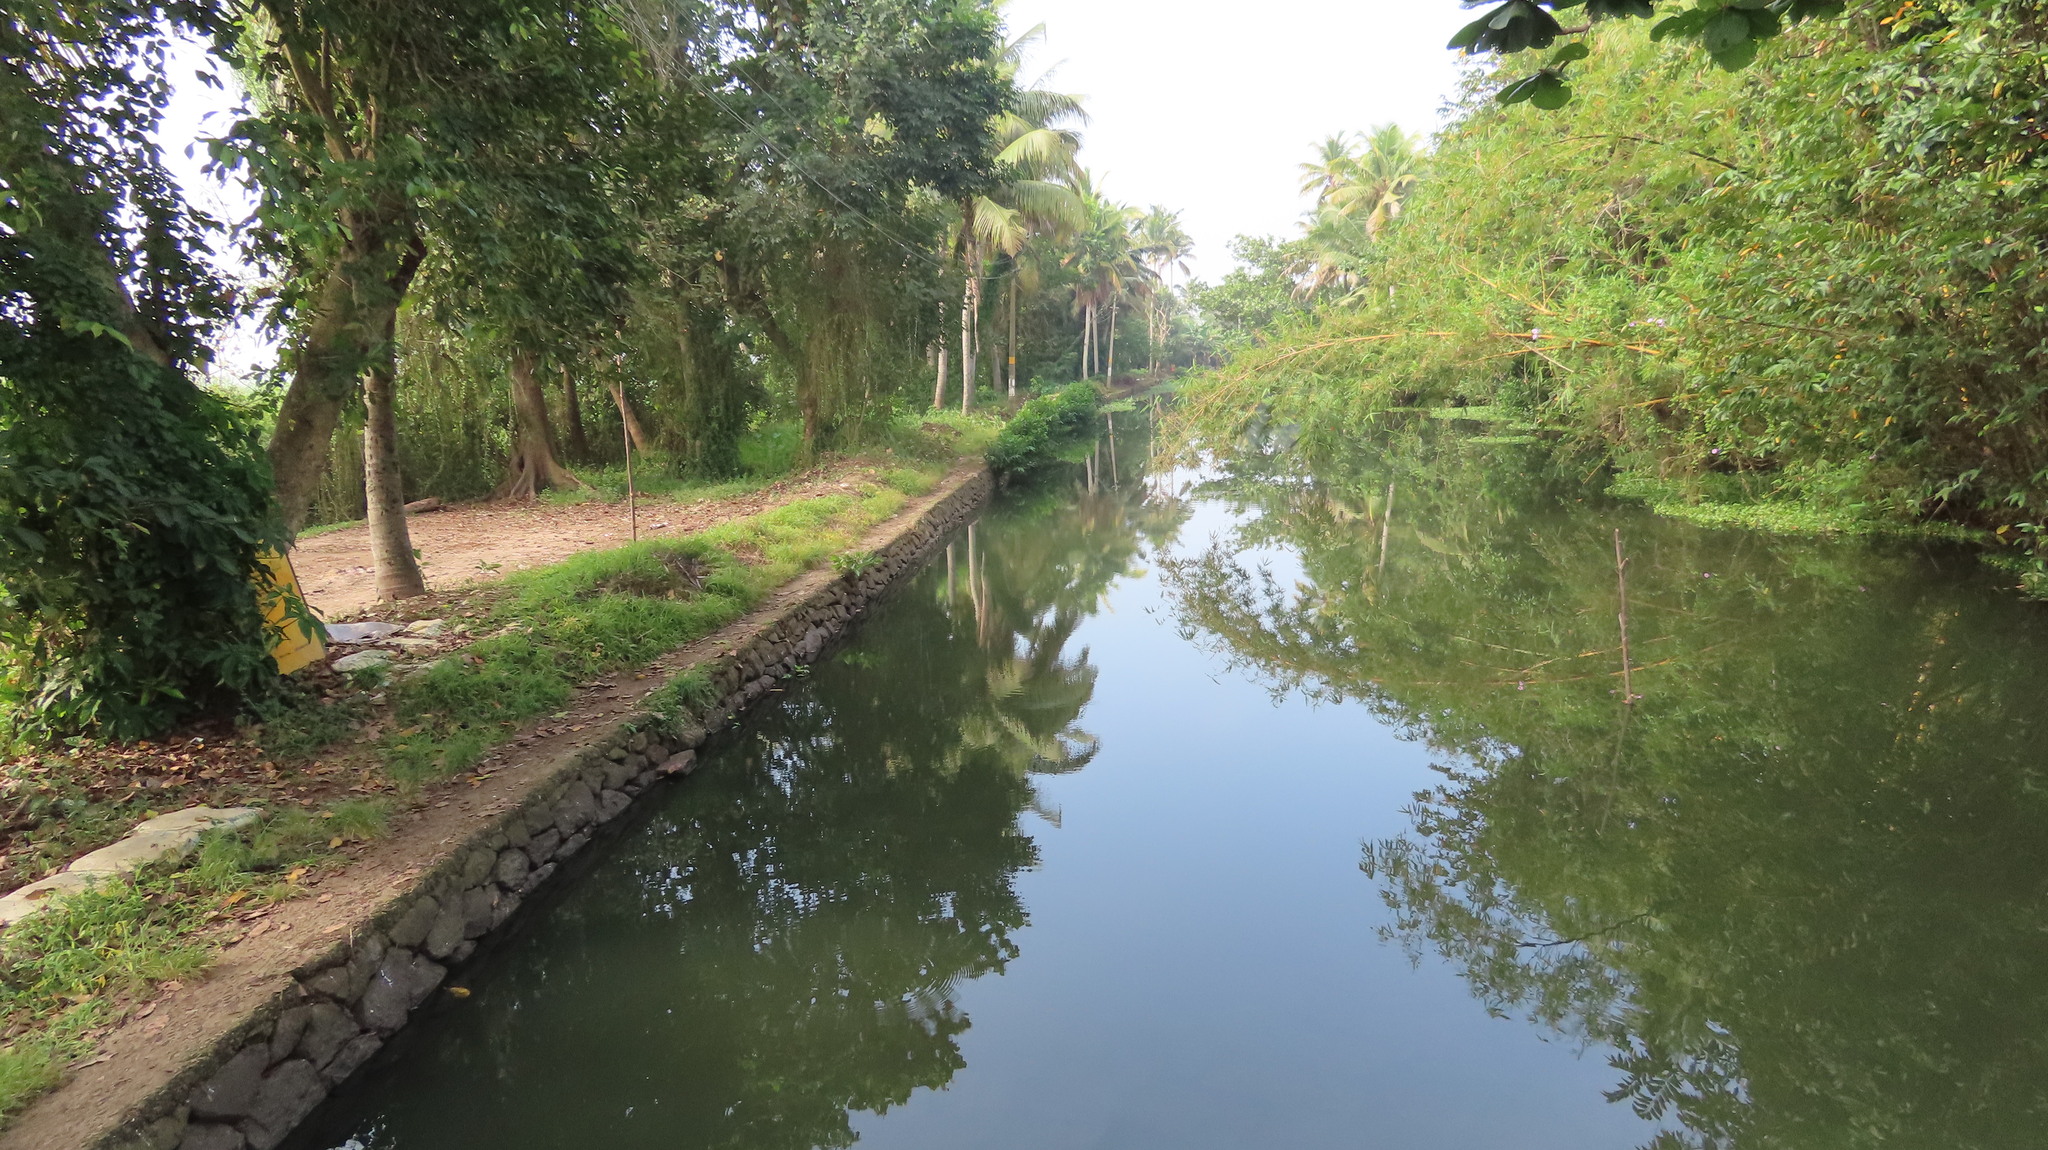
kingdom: Plantae
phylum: Tracheophyta
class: Liliopsida
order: Poales
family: Poaceae
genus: Bambusa
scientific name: Bambusa vulgaris
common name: Common bamboo
